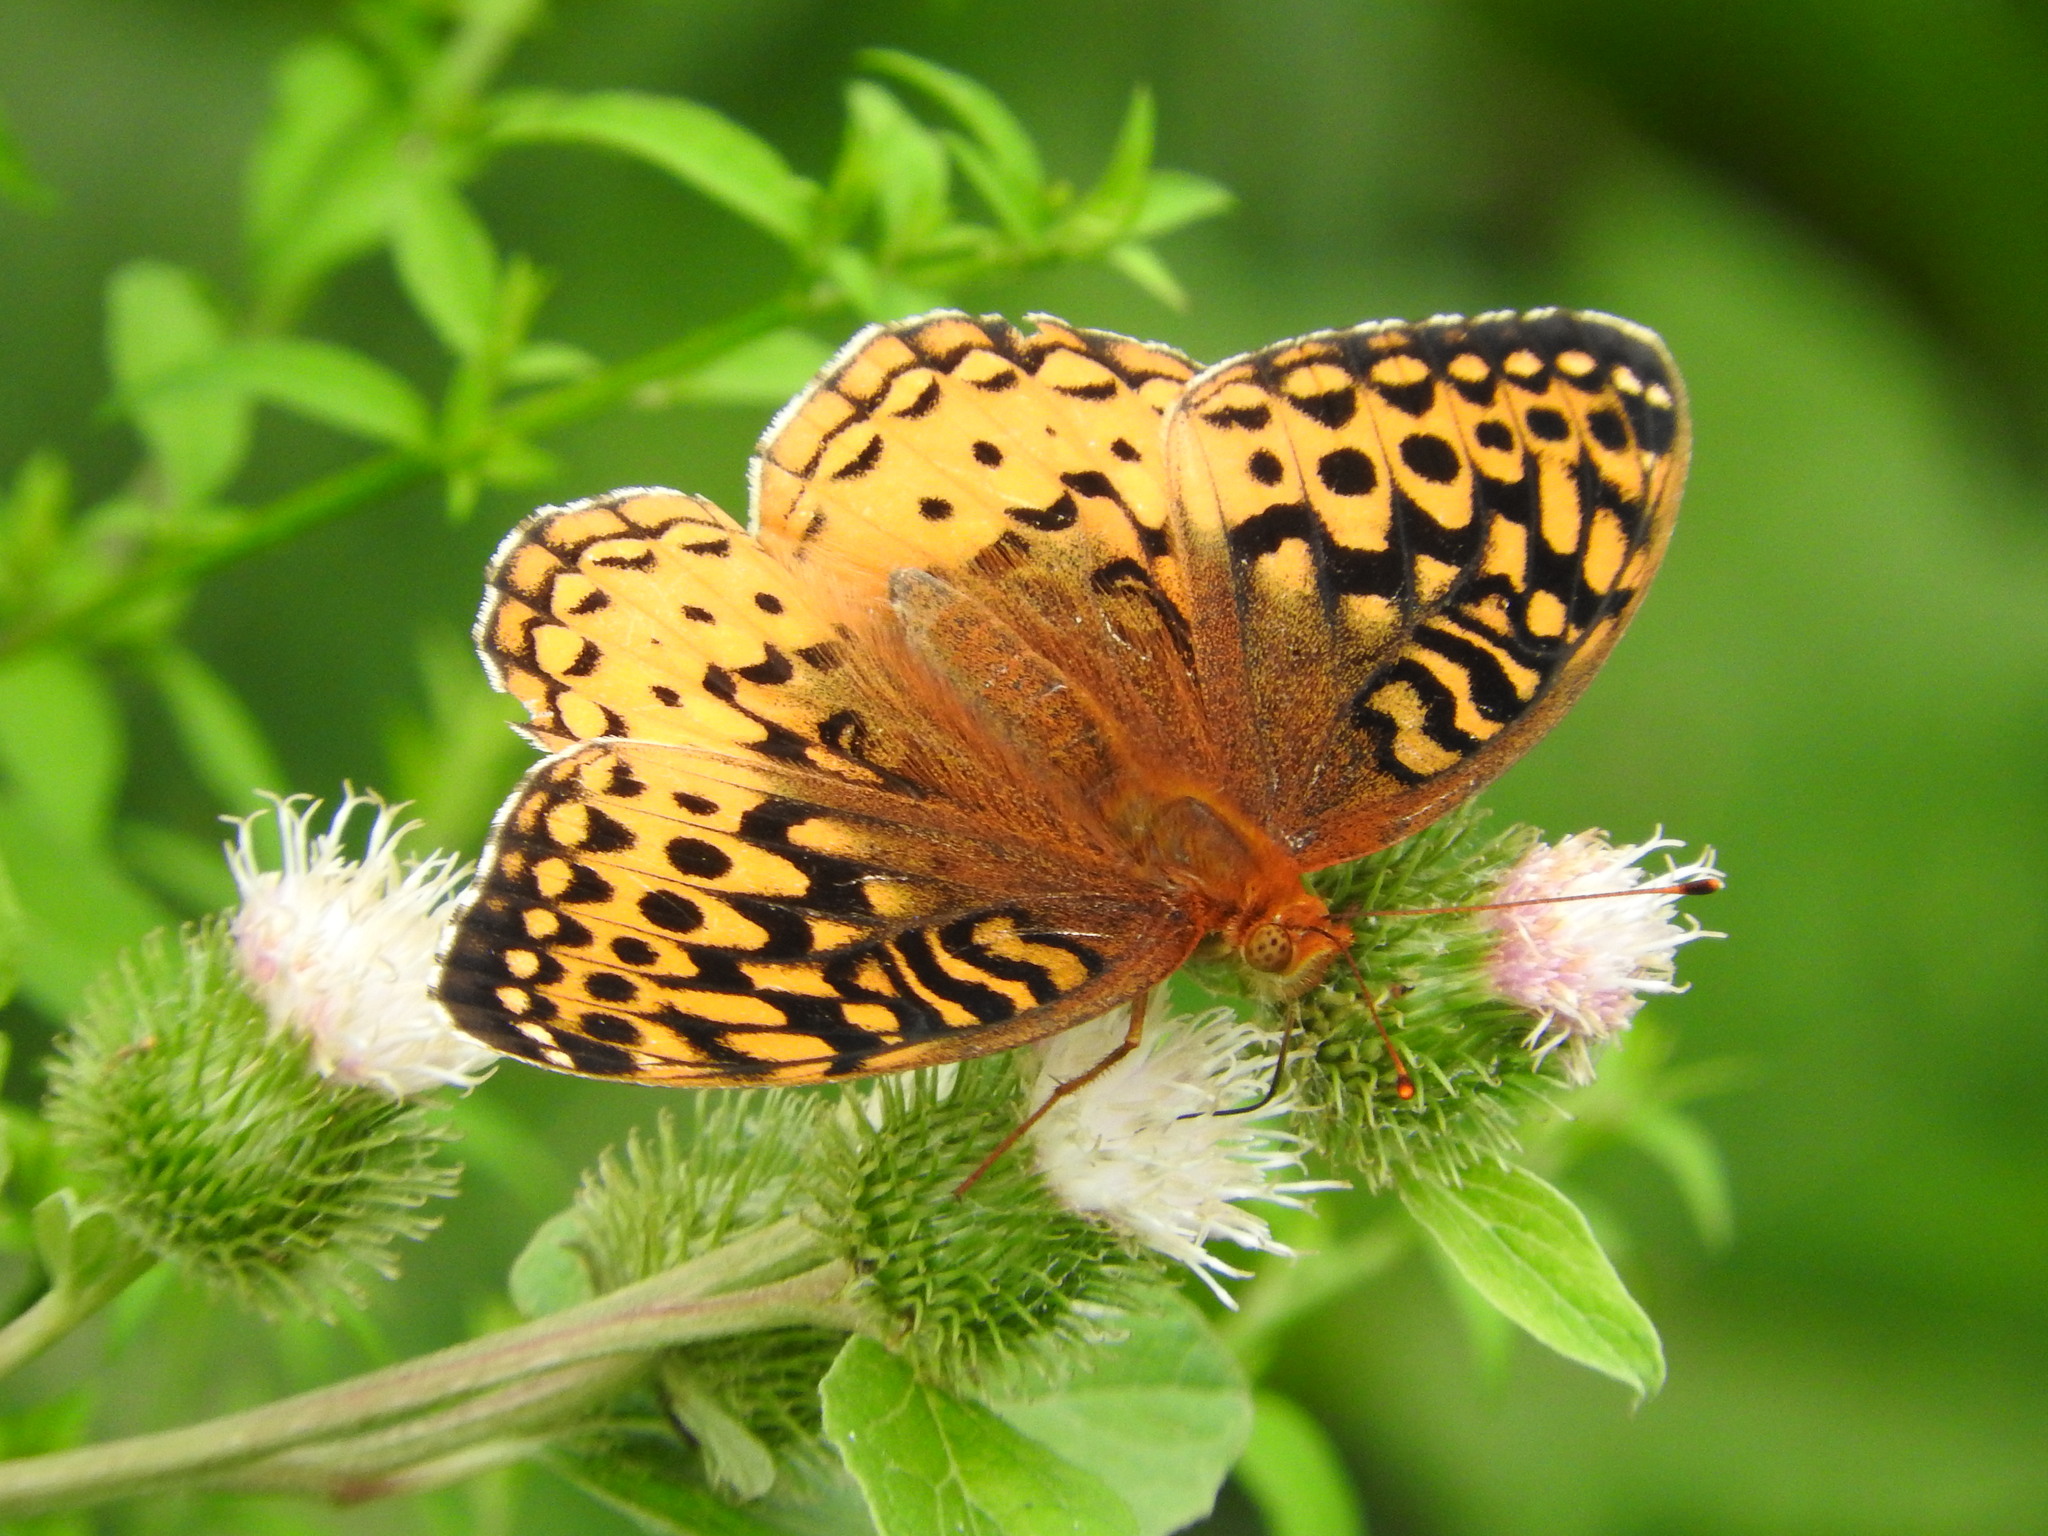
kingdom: Animalia
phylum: Arthropoda
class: Insecta
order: Lepidoptera
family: Nymphalidae
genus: Speyeria
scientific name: Speyeria cybele
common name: Great spangled fritillary
